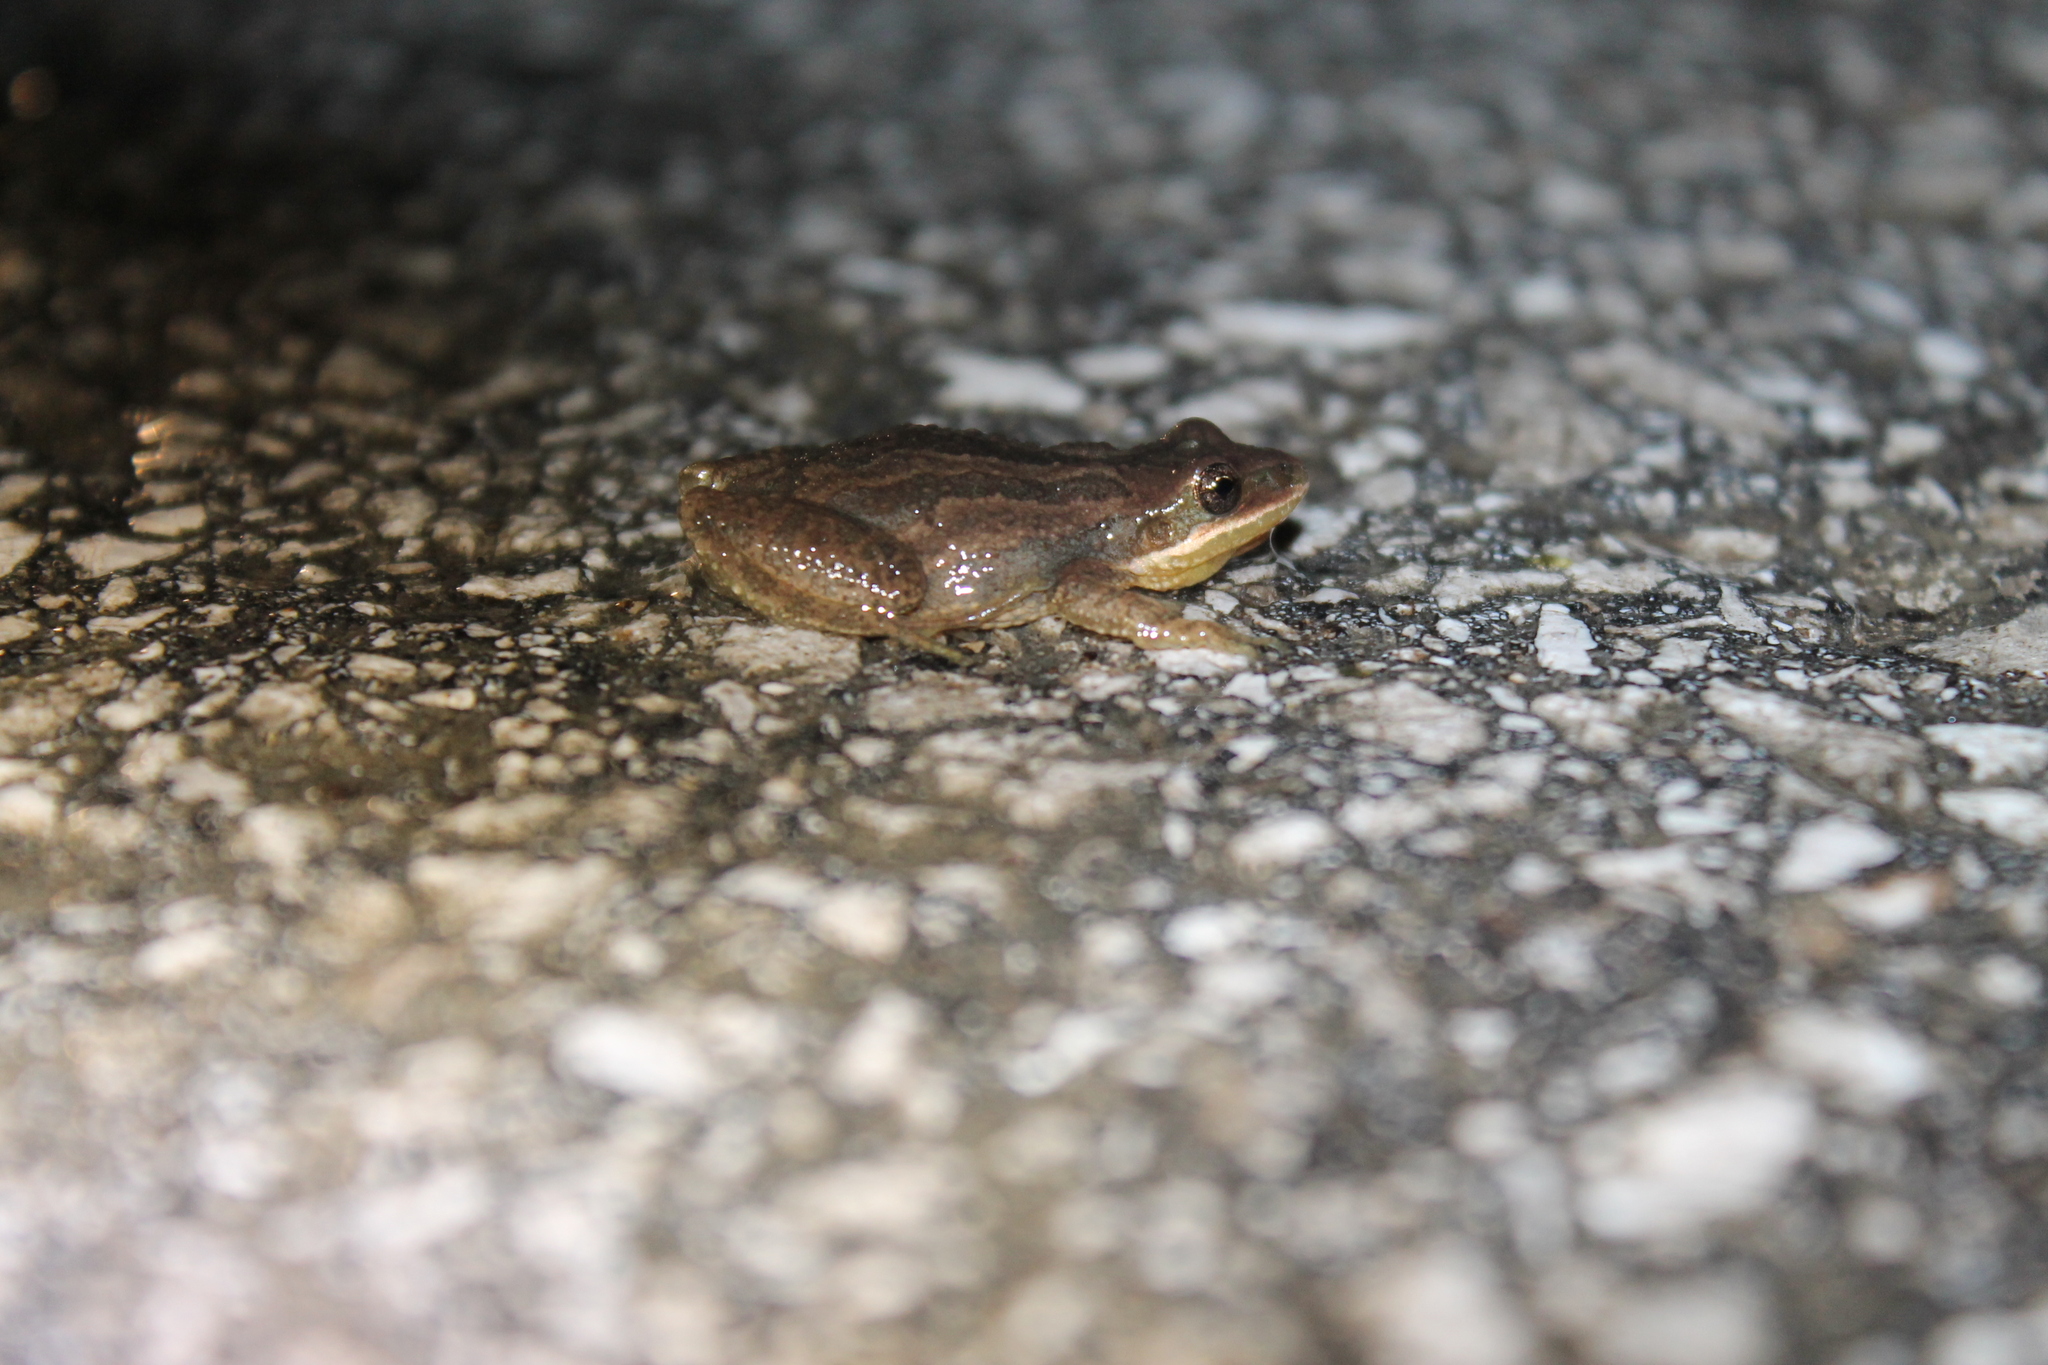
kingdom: Animalia
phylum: Chordata
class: Amphibia
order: Anura
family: Hylidae
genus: Pseudacris
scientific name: Pseudacris feriarum
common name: Upland chorus frog
